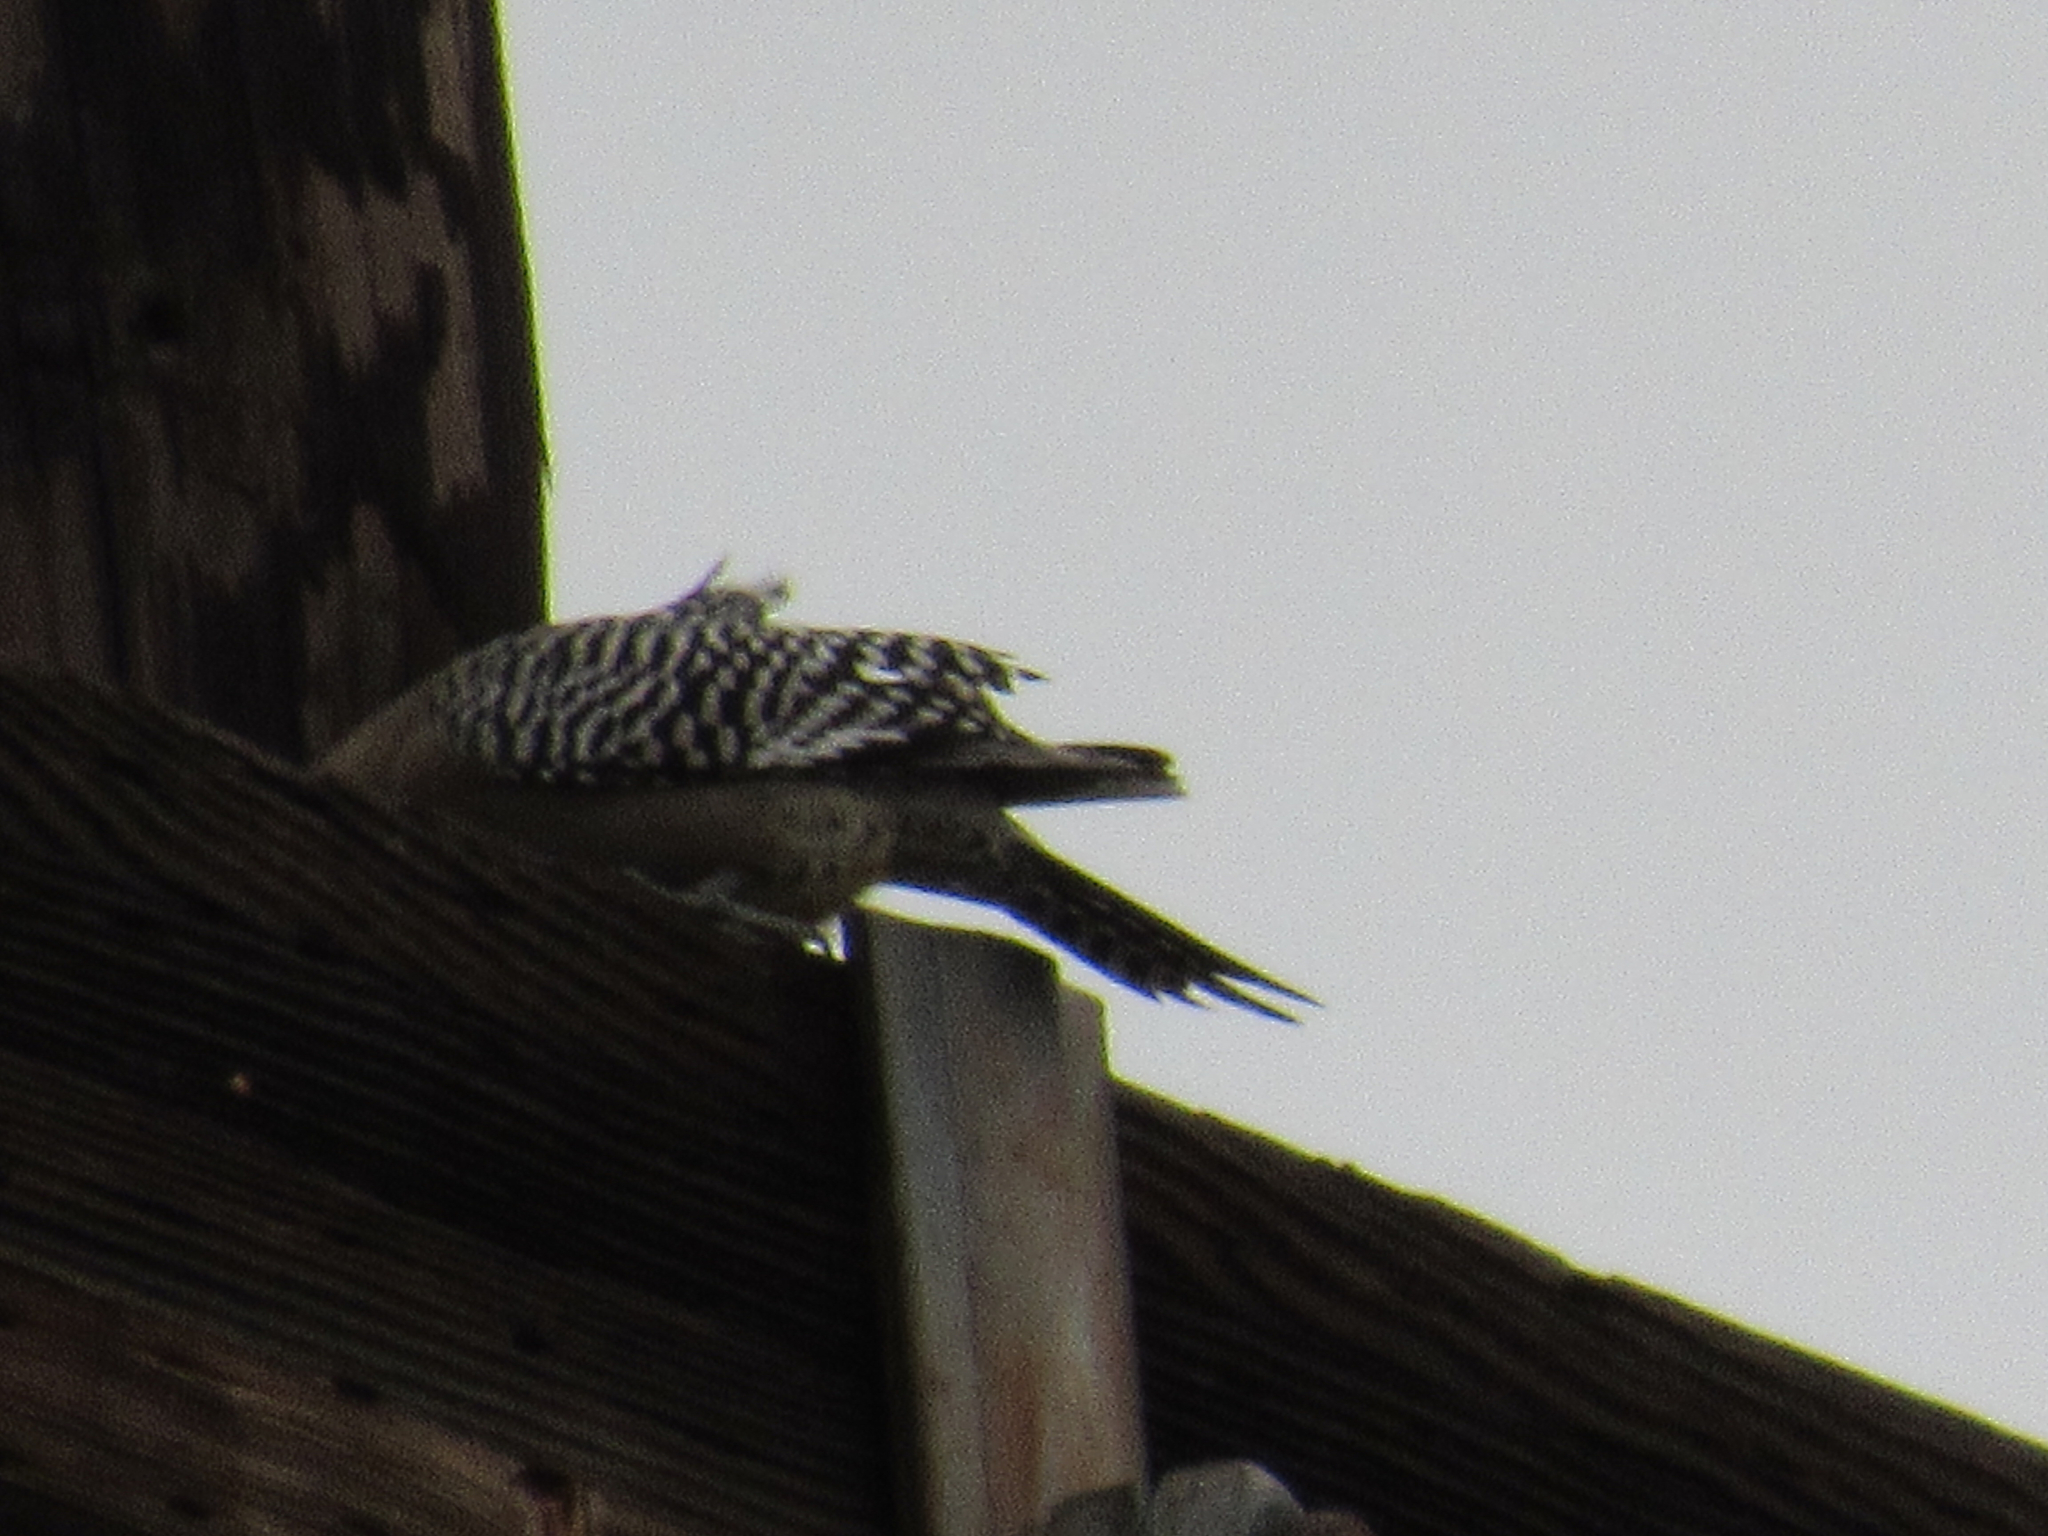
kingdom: Animalia
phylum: Chordata
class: Aves
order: Piciformes
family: Picidae
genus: Melanerpes
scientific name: Melanerpes uropygialis
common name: Gila woodpecker
